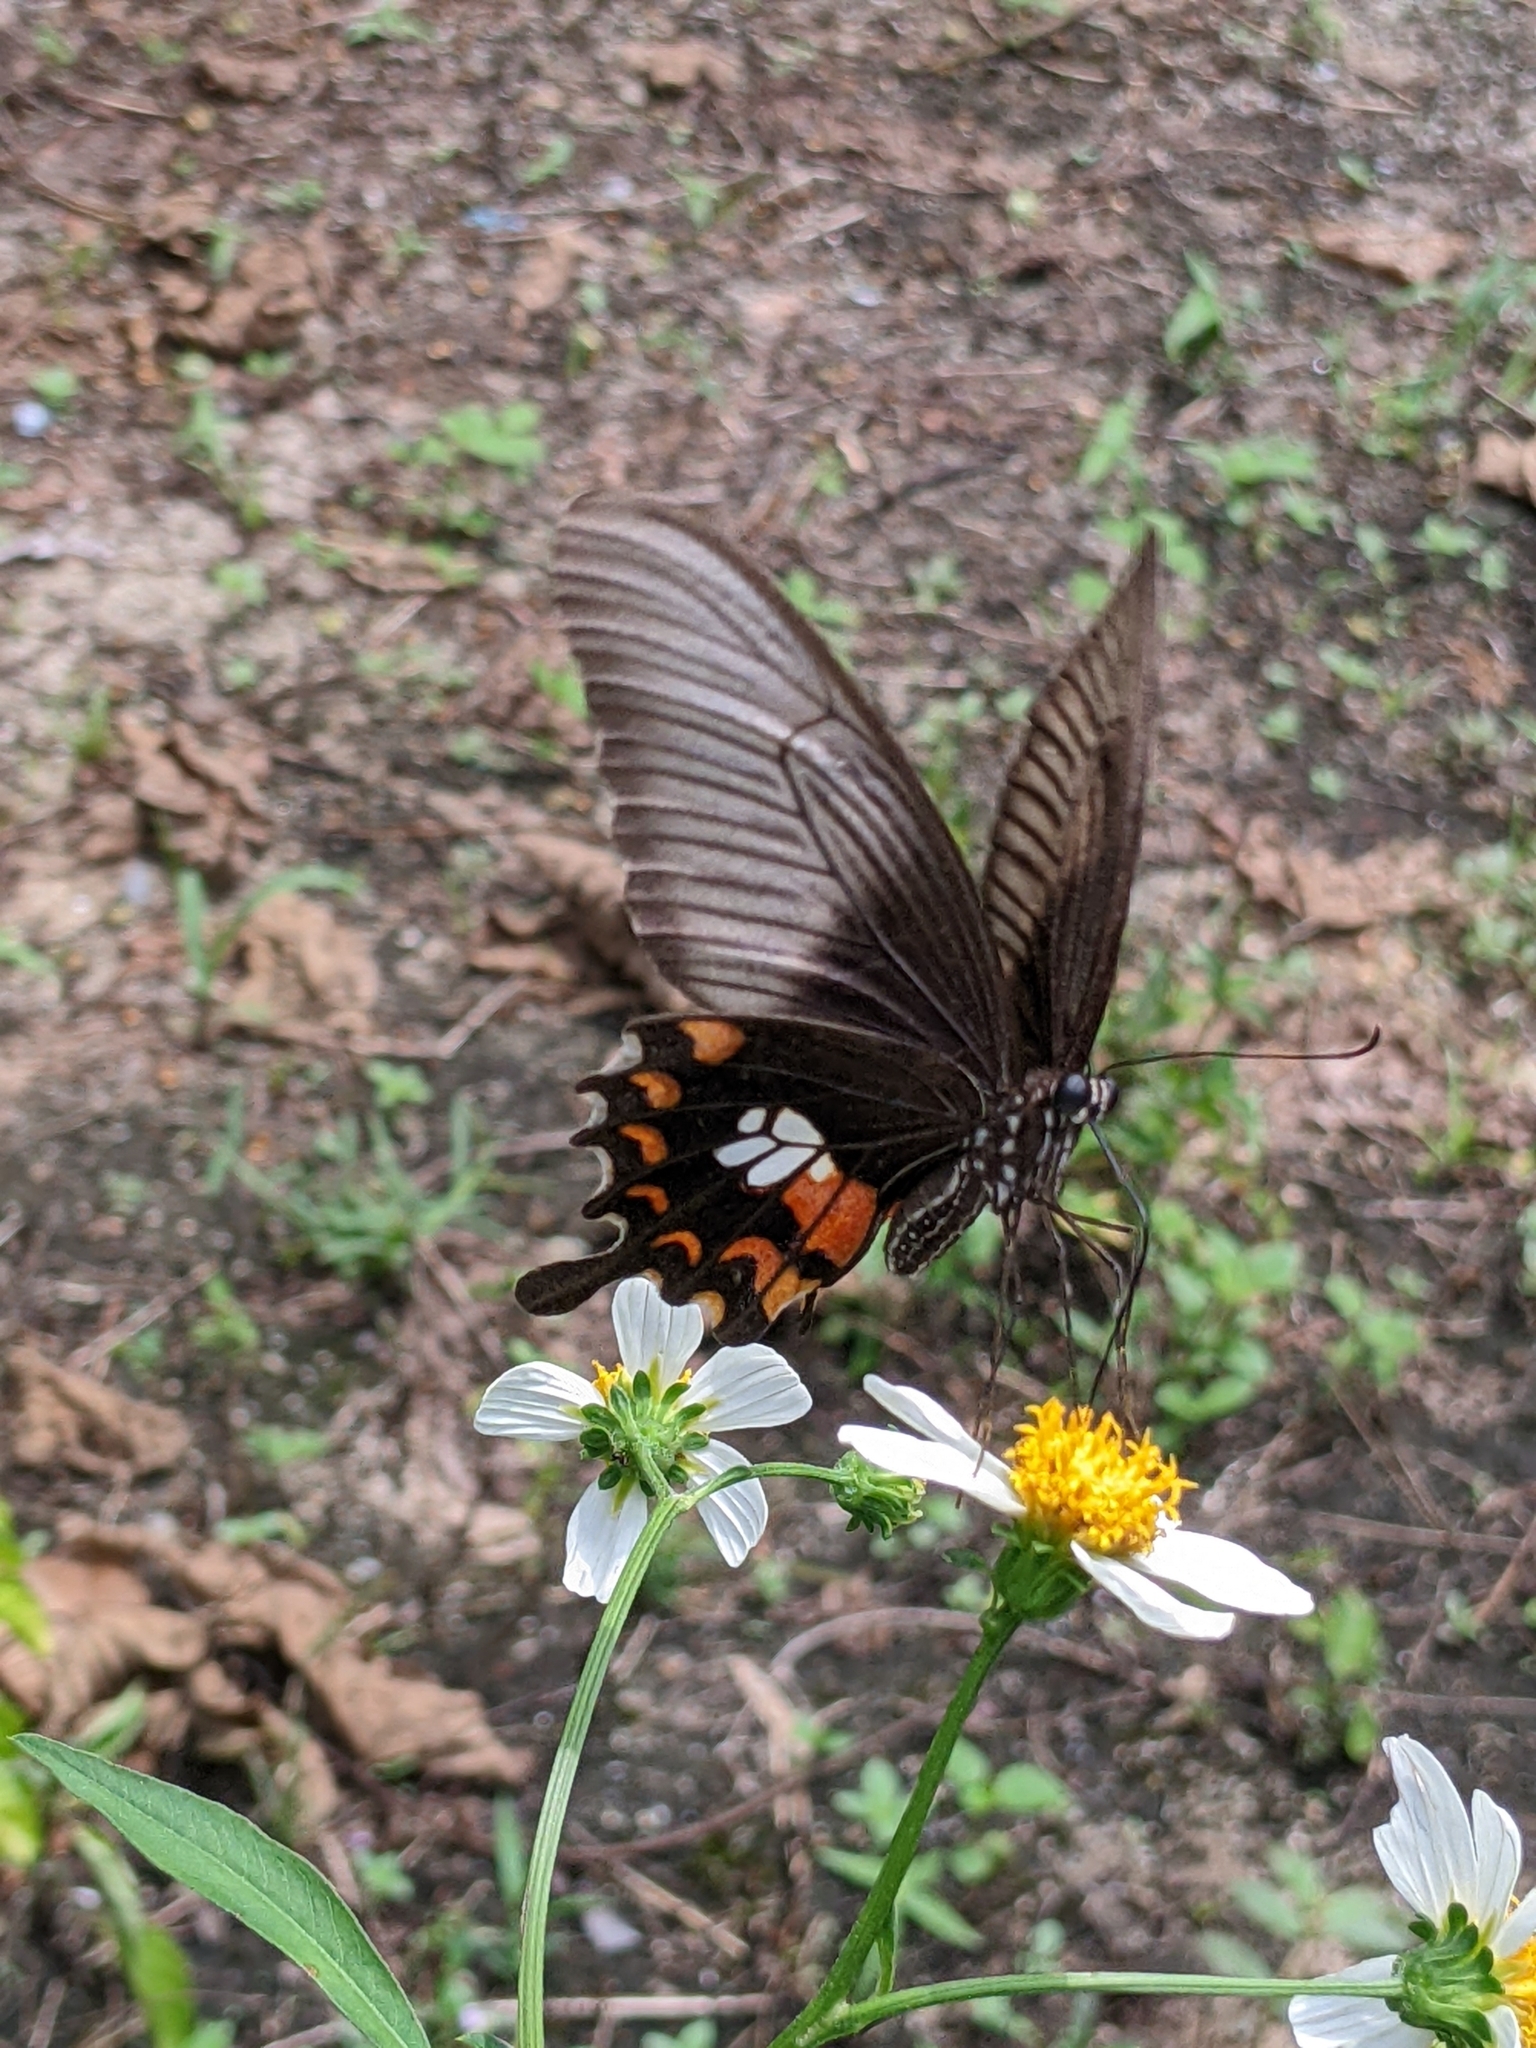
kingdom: Animalia
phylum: Arthropoda
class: Insecta
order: Lepidoptera
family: Papilionidae
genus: Papilio
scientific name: Papilio polytes
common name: Common mormon
